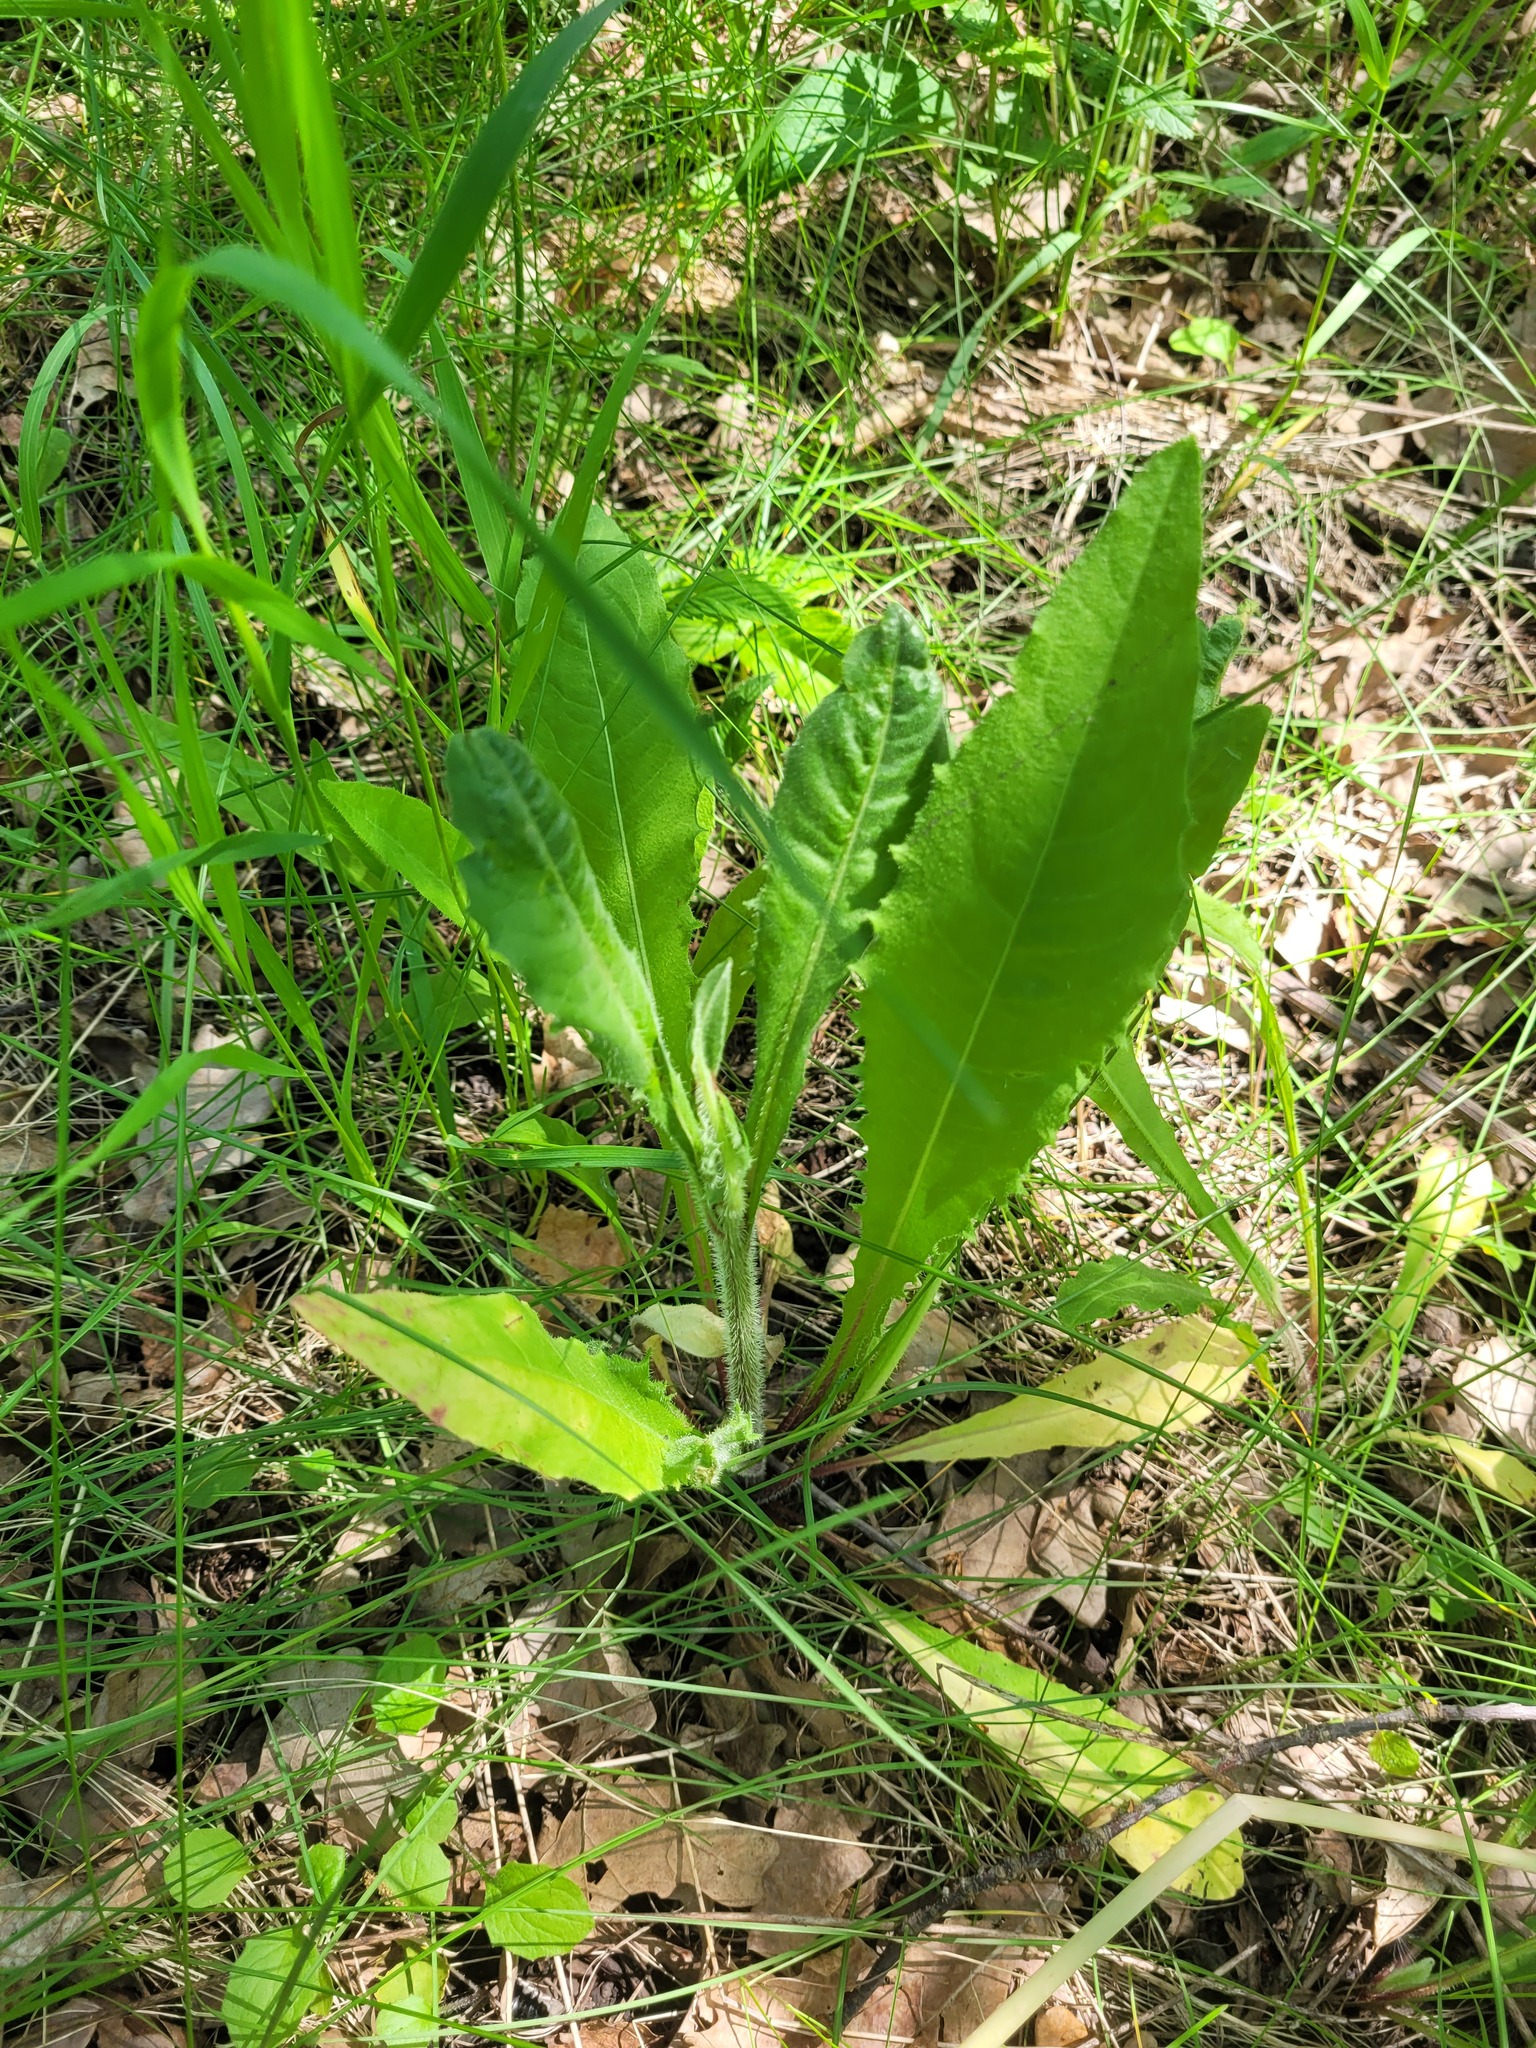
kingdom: Plantae
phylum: Tracheophyta
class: Magnoliopsida
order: Asterales
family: Asteraceae
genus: Picris
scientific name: Picris hieracioides
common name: Hawkweed oxtongue
